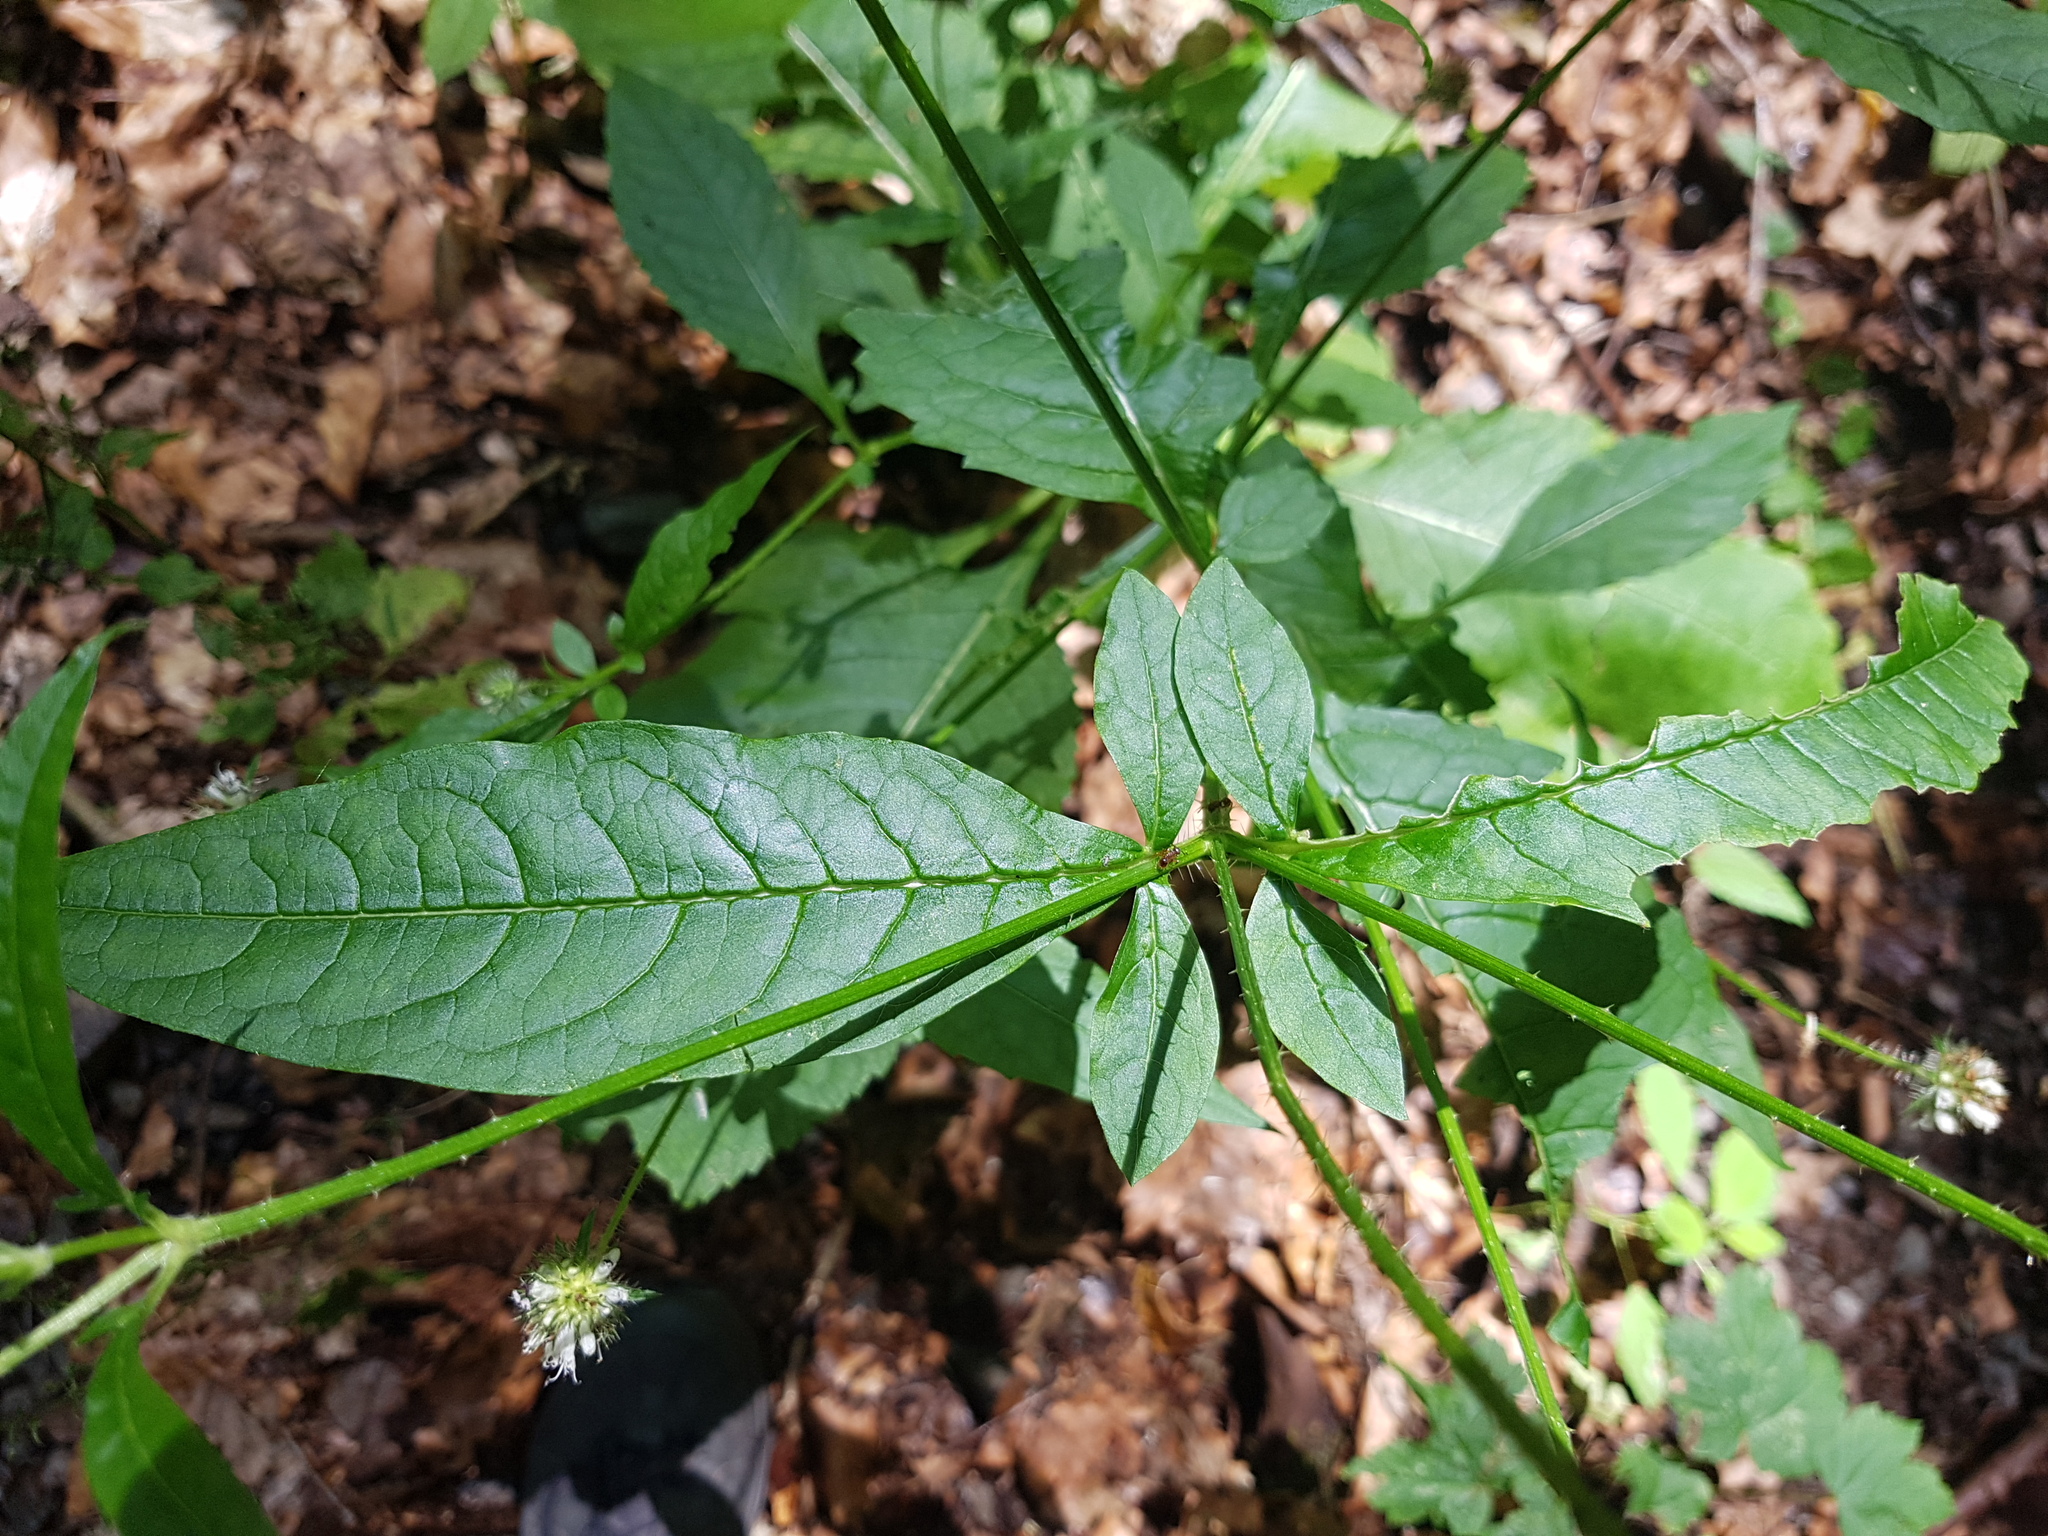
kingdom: Plantae
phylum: Tracheophyta
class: Magnoliopsida
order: Dipsacales
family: Caprifoliaceae
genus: Dipsacus
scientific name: Dipsacus pilosus
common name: Small teasel
